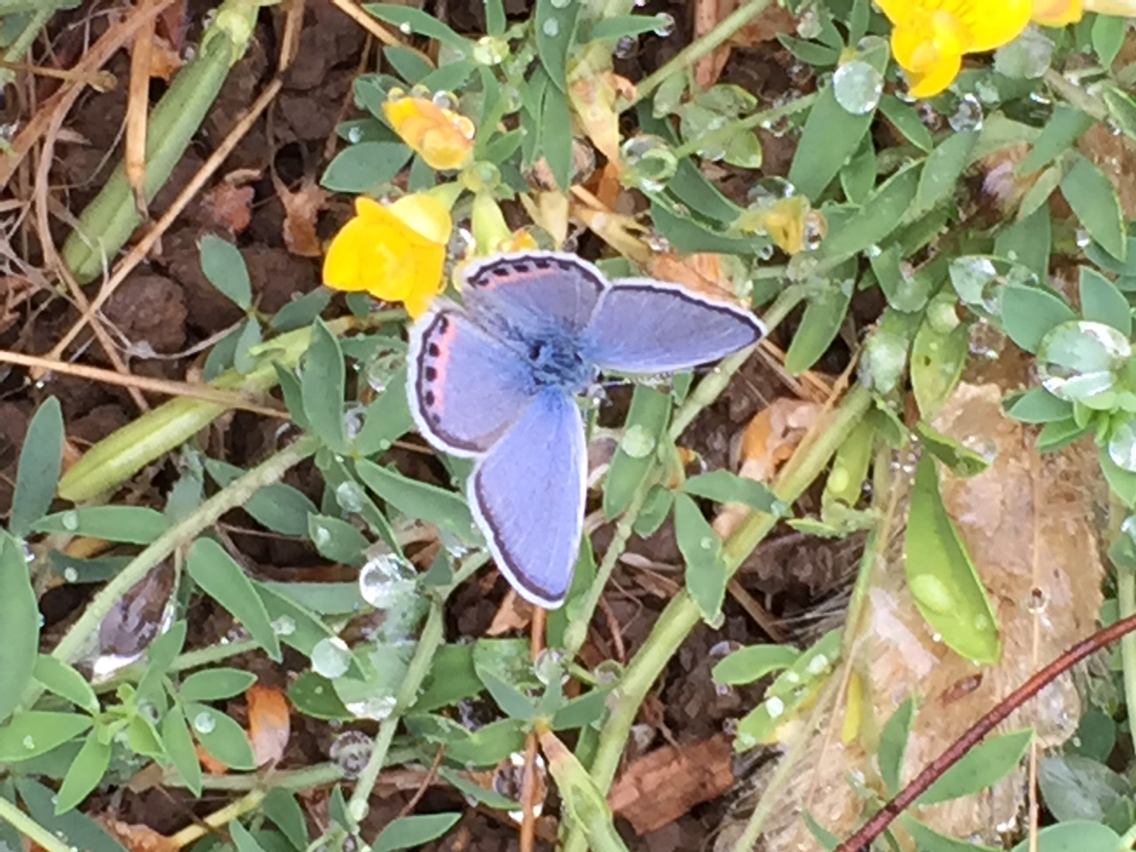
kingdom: Animalia
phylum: Arthropoda
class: Insecta
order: Lepidoptera
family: Lycaenidae
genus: Icaricia
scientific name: Icaricia acmon
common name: Acmon blue
